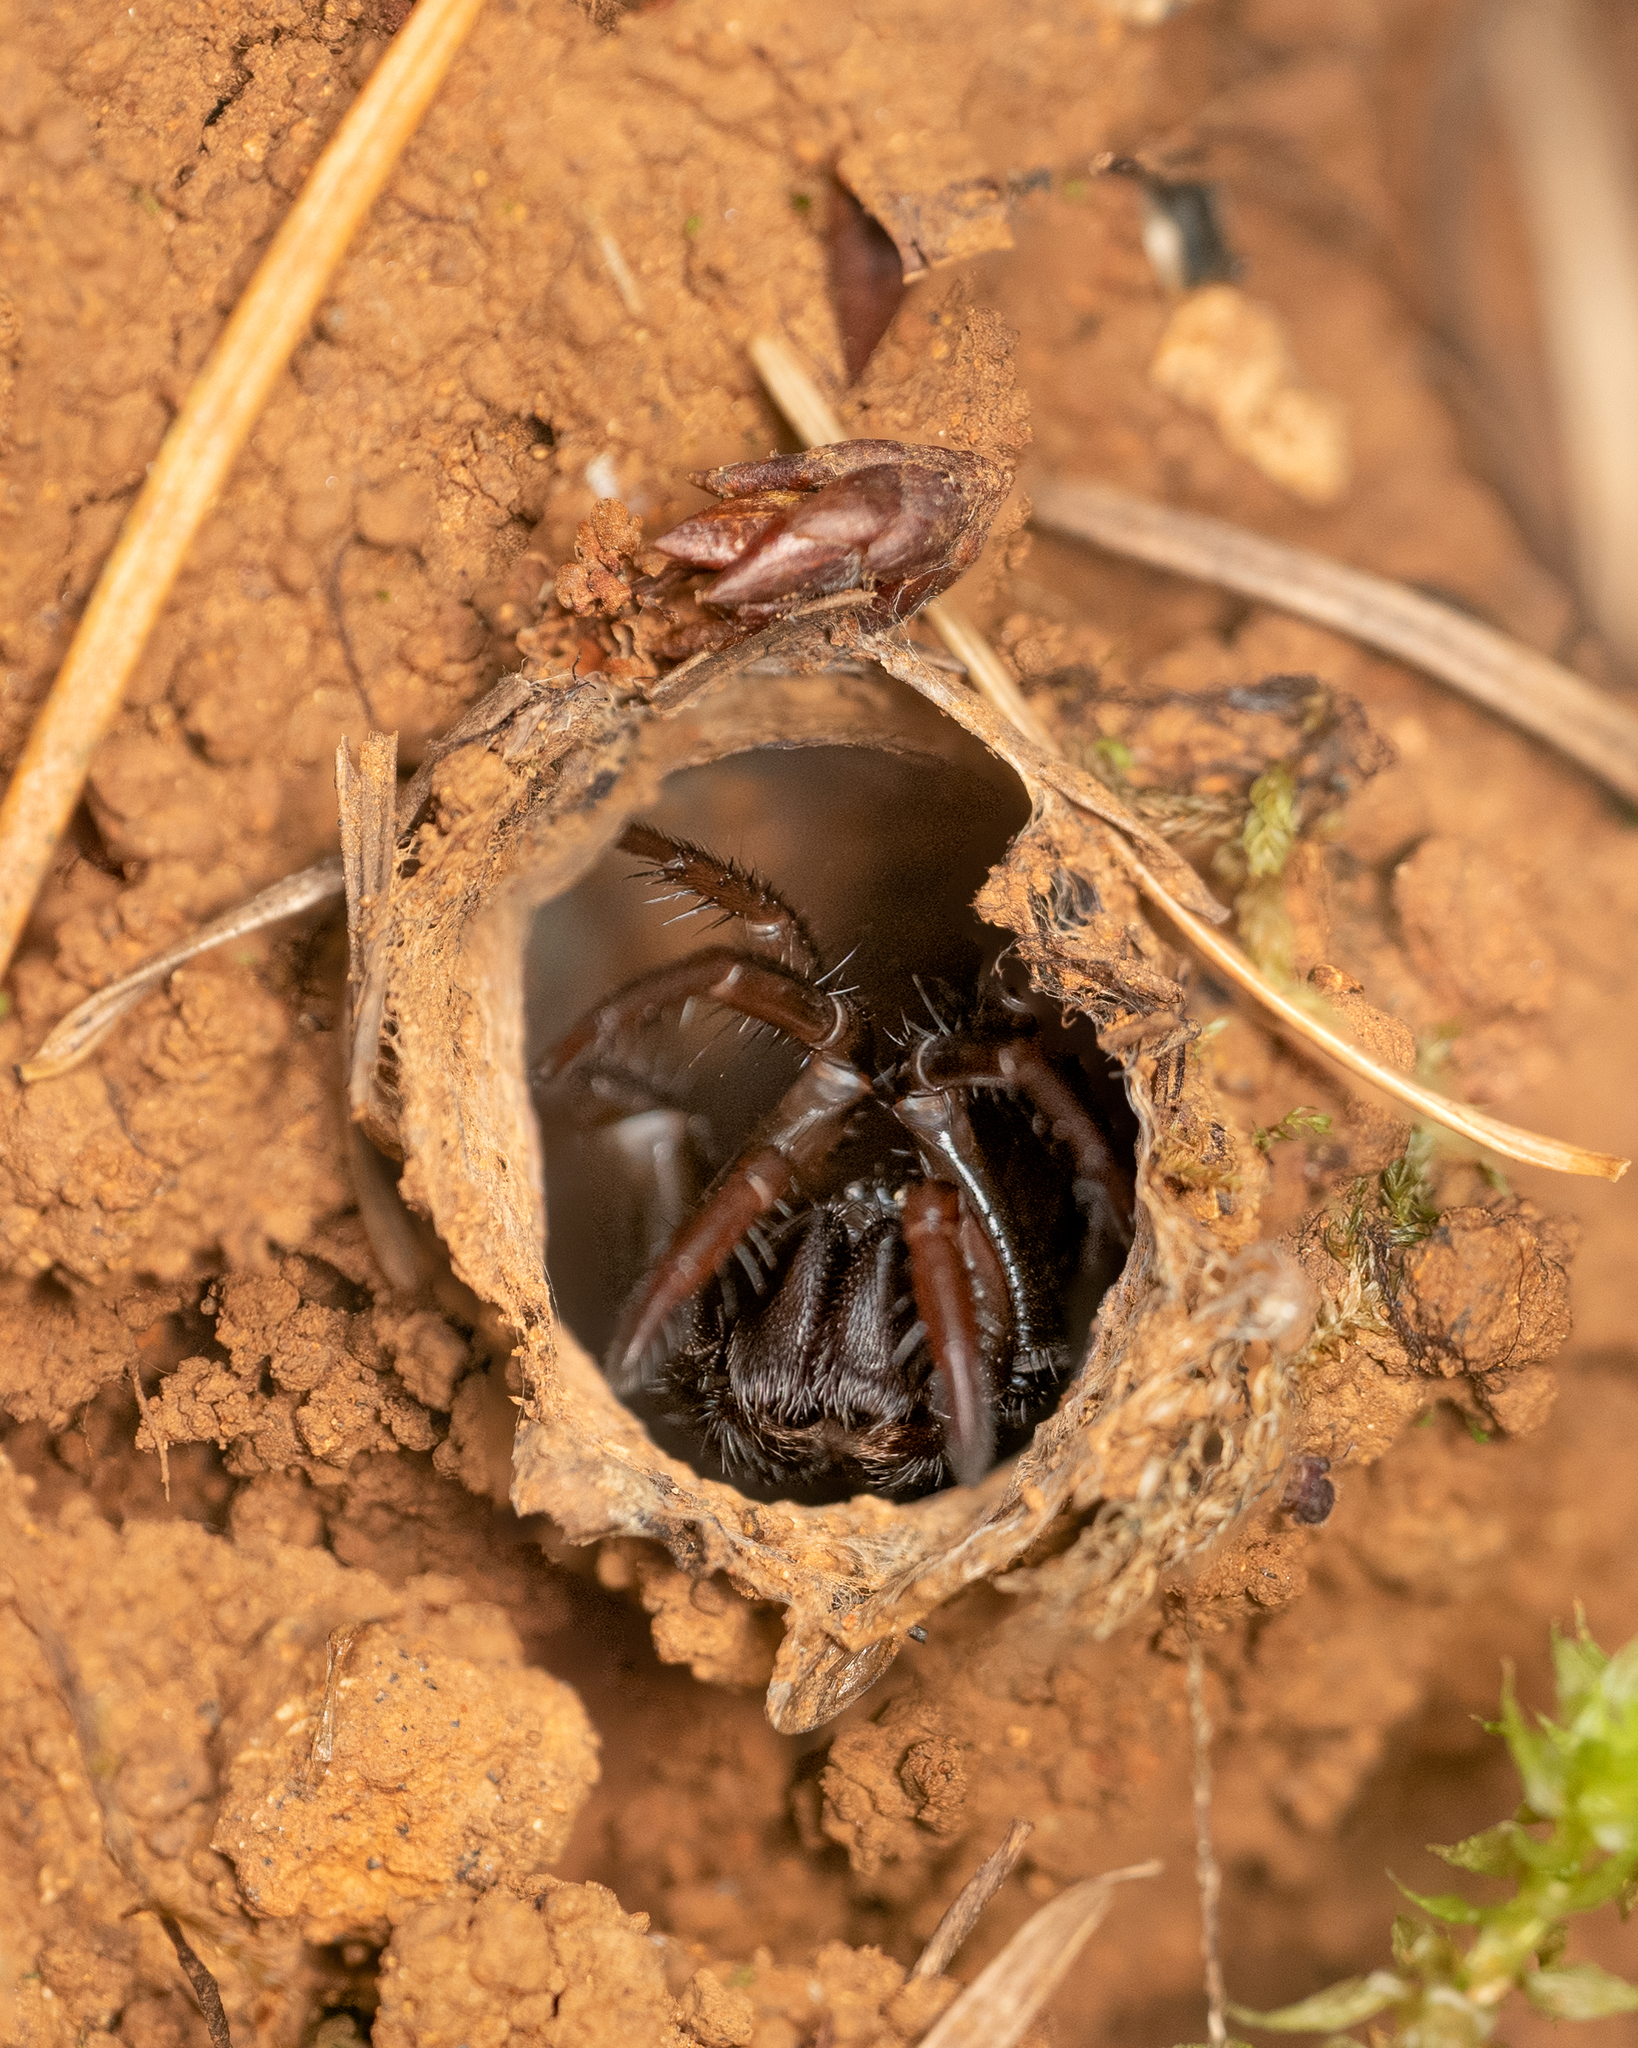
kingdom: Animalia
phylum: Arthropoda
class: Arachnida
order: Araneae
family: Antrodiaetidae
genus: Antrodiaetus
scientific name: Antrodiaetus pacificus
